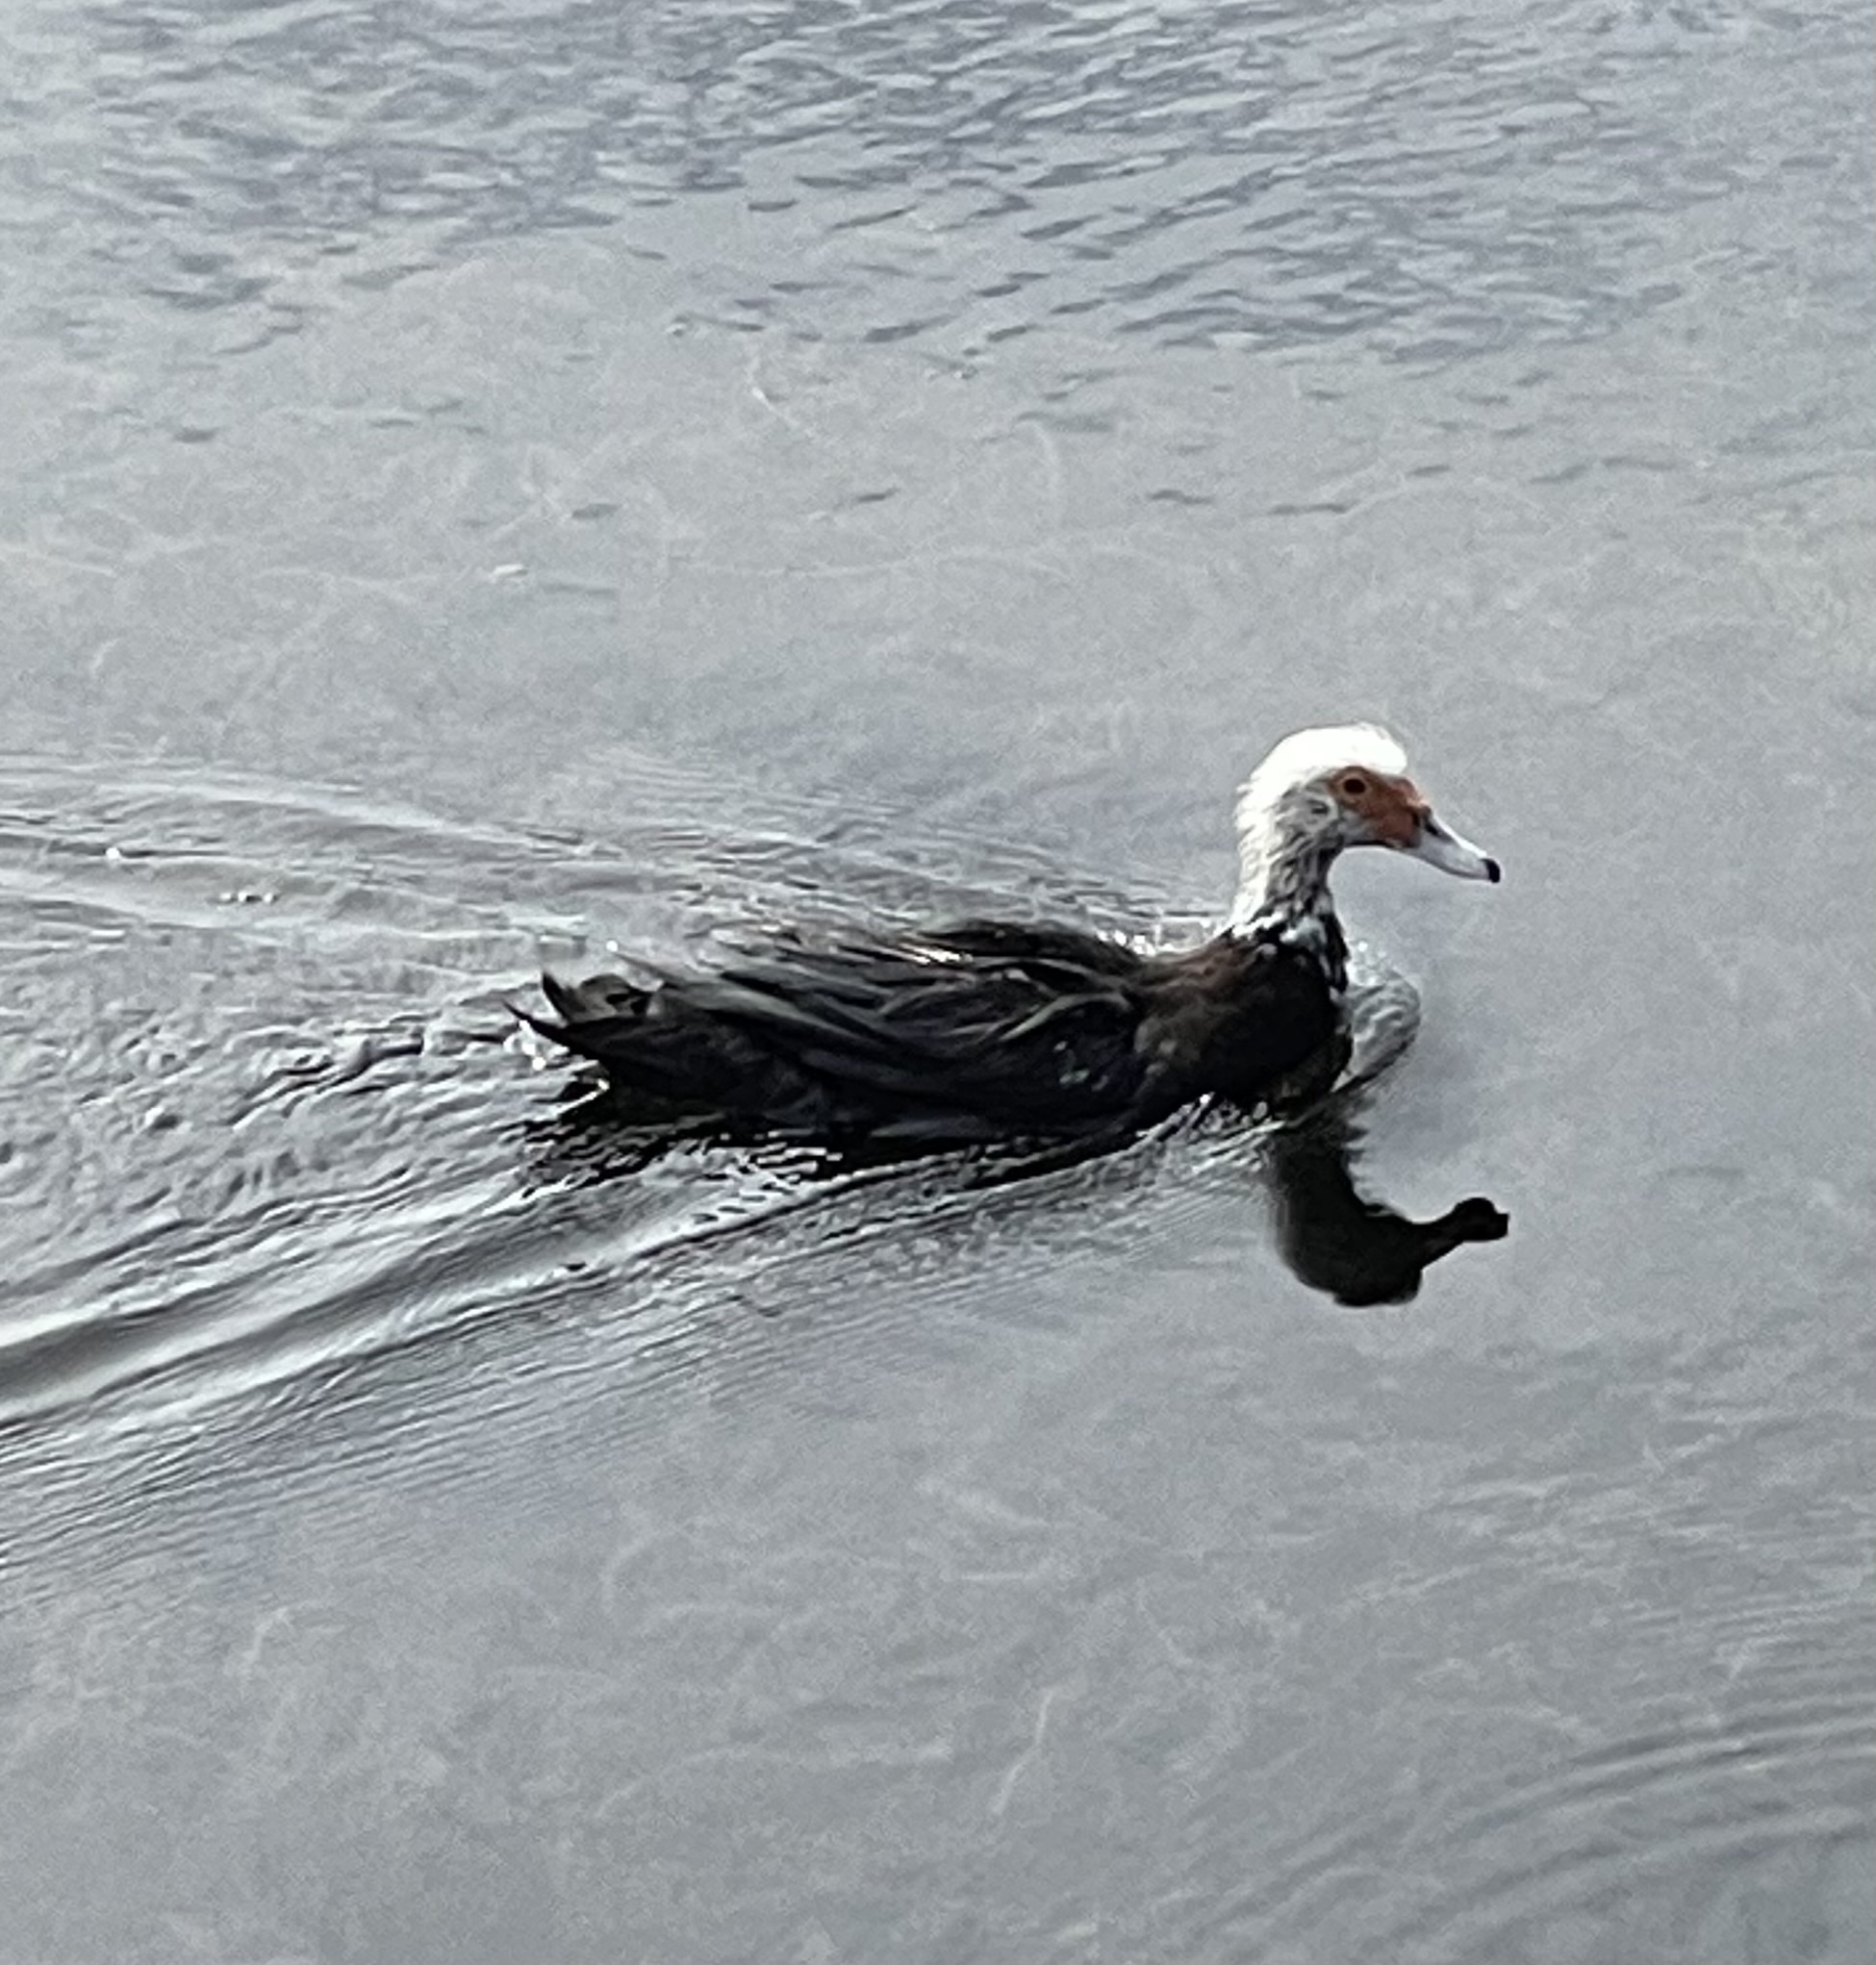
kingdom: Animalia
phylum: Chordata
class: Aves
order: Anseriformes
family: Anatidae
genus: Cairina
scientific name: Cairina moschata
